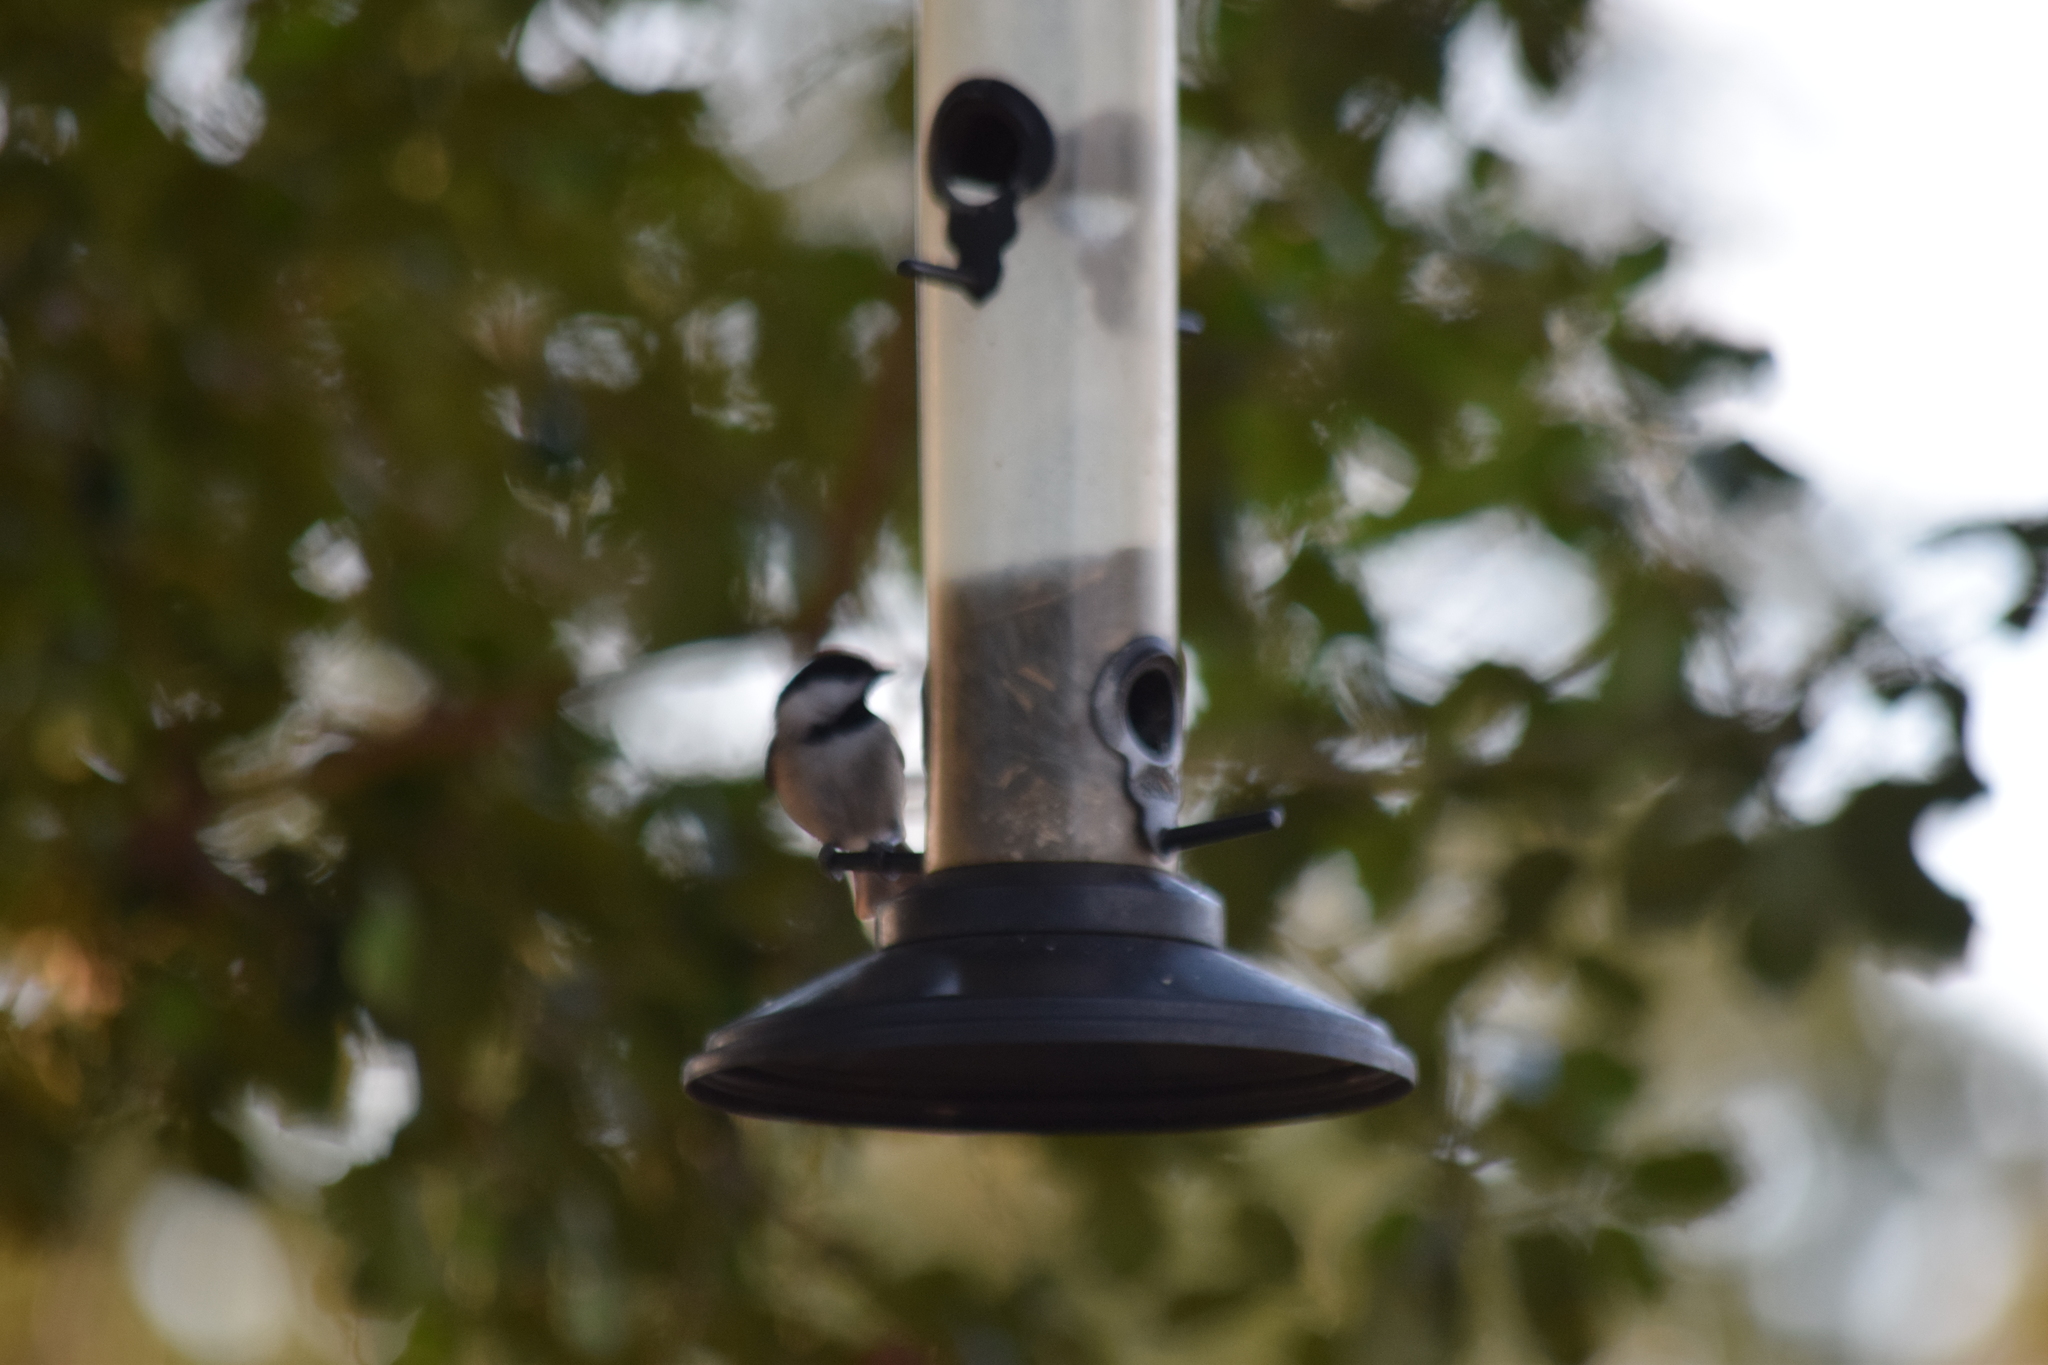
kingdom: Animalia
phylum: Chordata
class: Aves
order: Passeriformes
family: Paridae
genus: Poecile
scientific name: Poecile carolinensis
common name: Carolina chickadee
